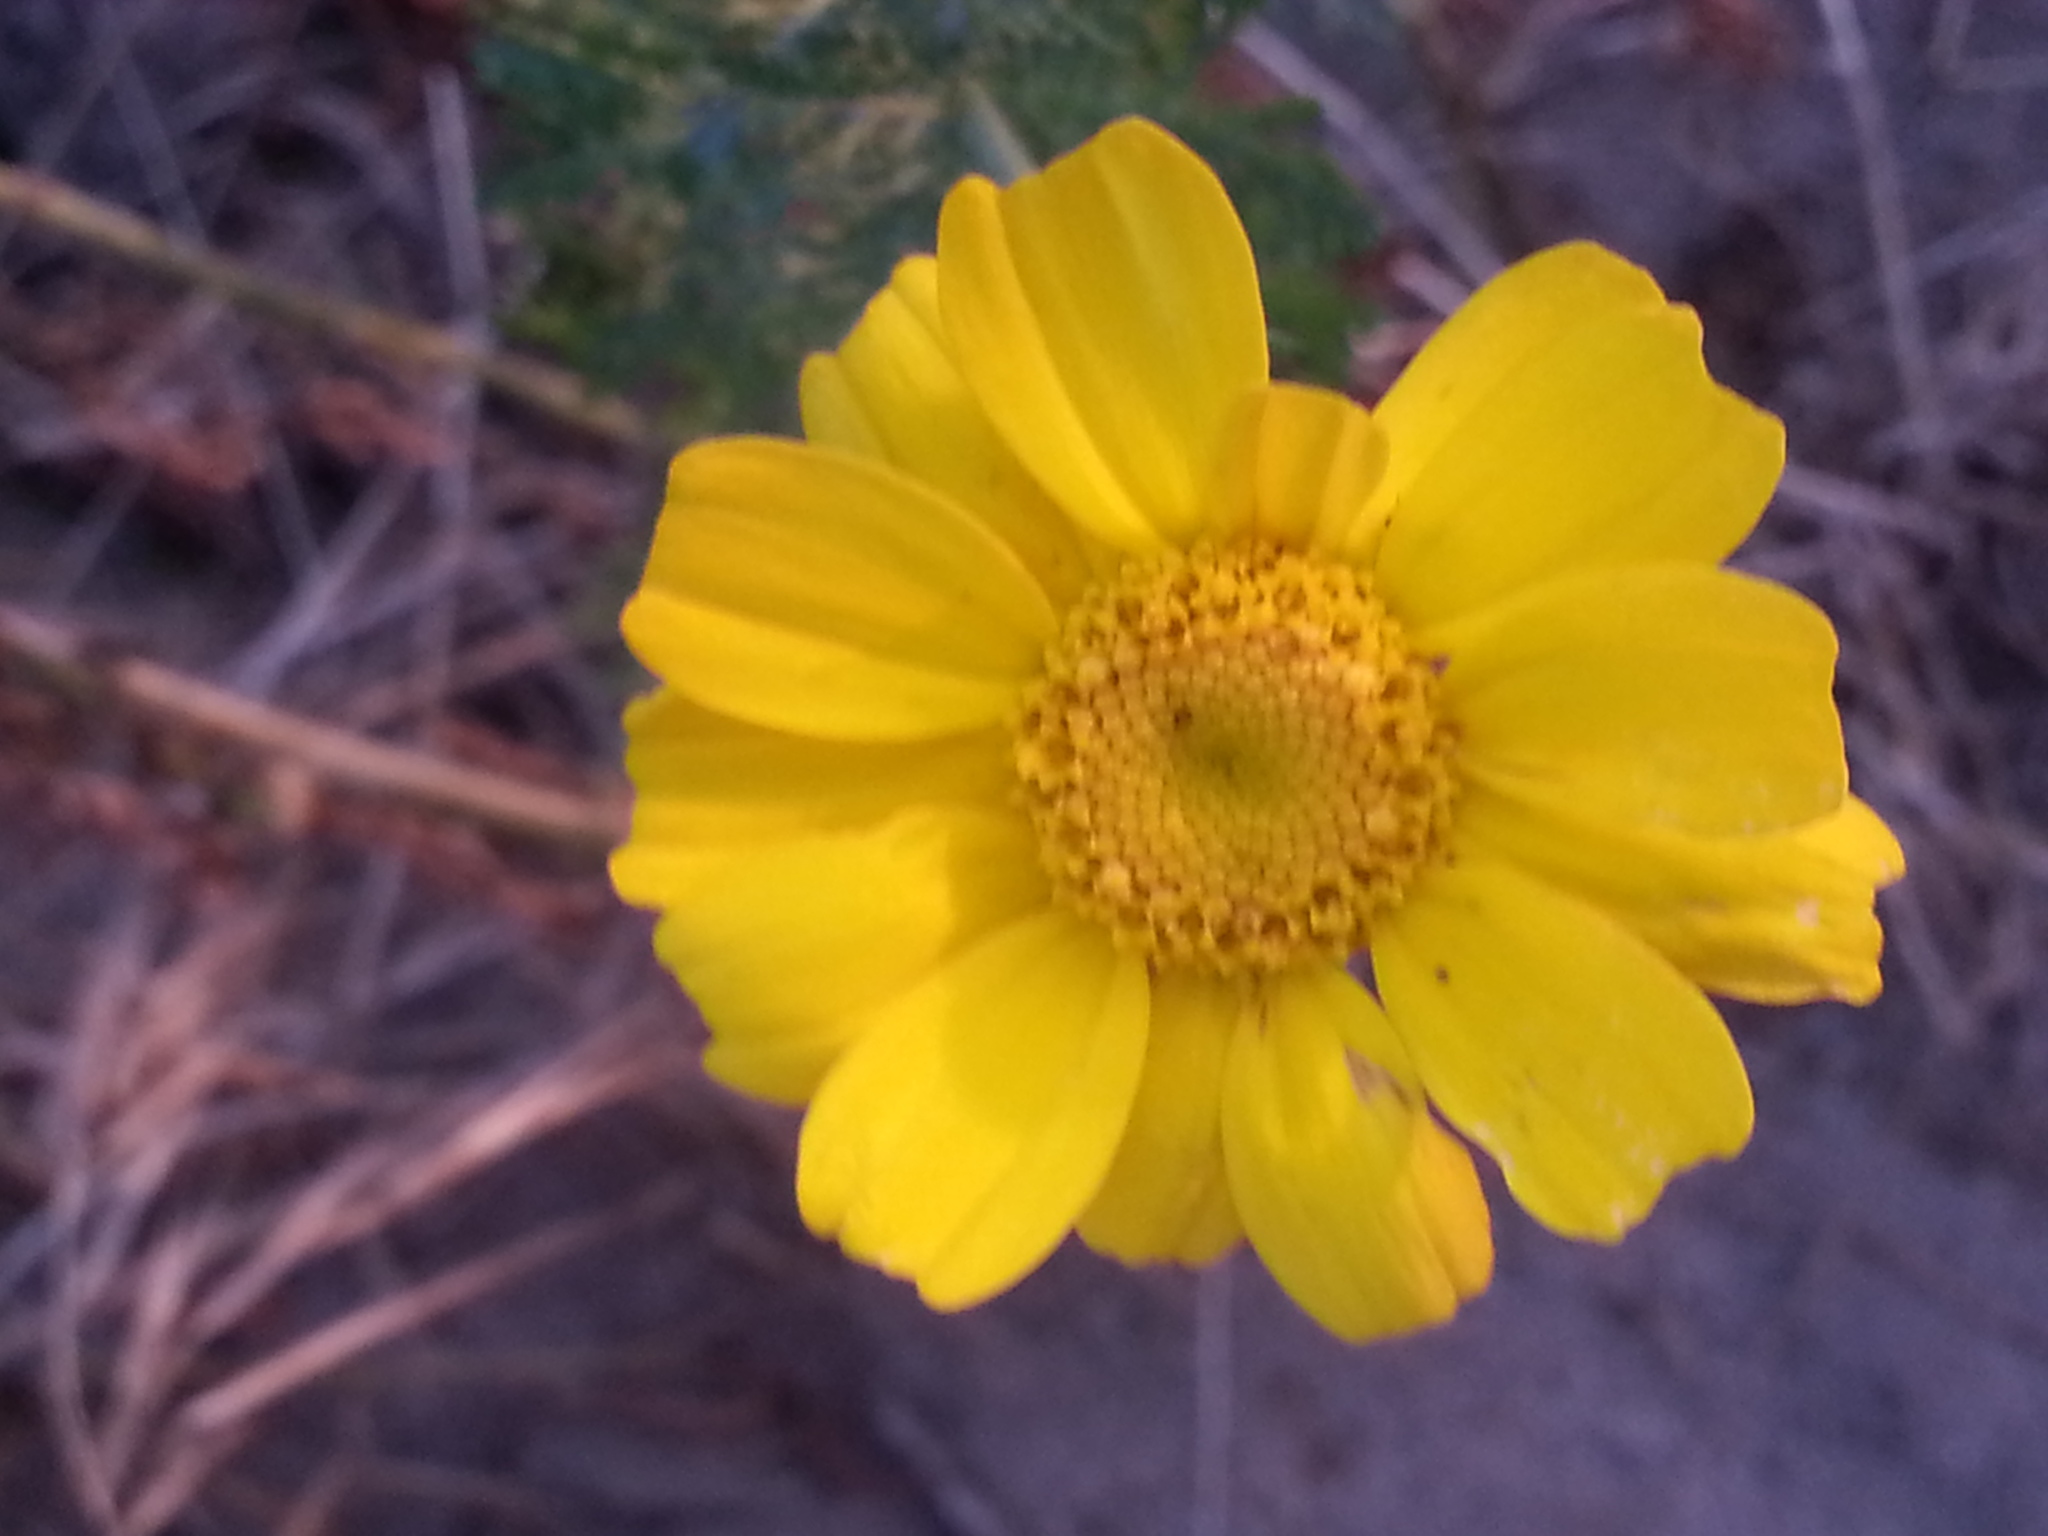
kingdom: Plantae
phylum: Tracheophyta
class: Magnoliopsida
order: Asterales
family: Asteraceae
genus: Glebionis
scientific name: Glebionis coronaria
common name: Crowndaisy
